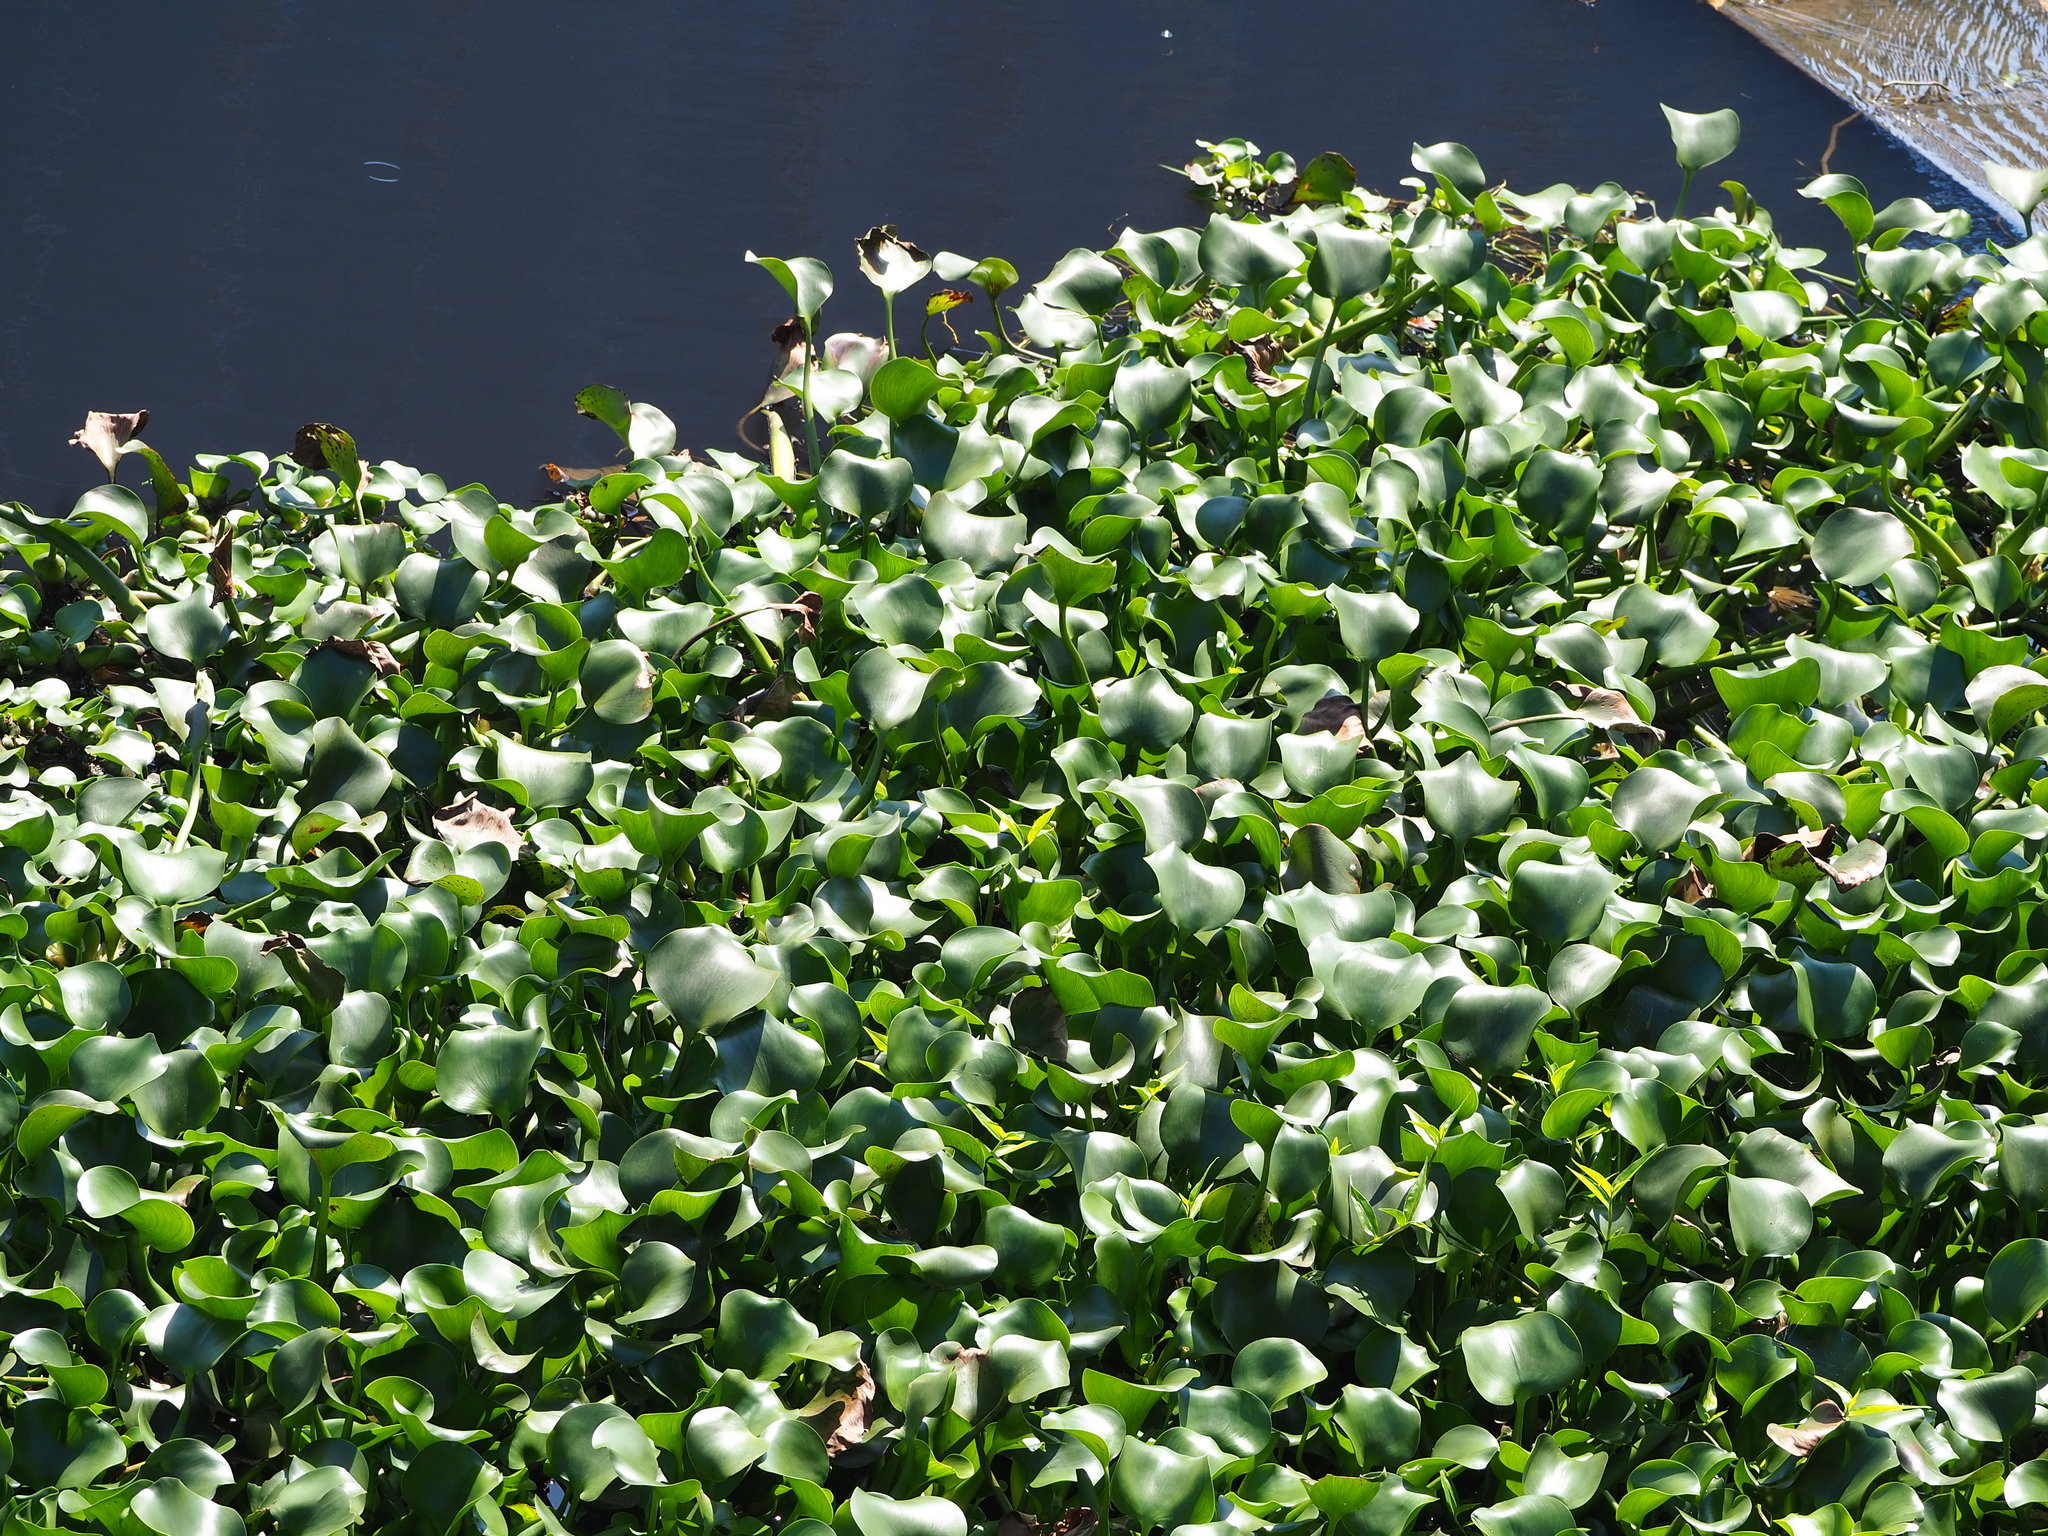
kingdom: Plantae
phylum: Tracheophyta
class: Liliopsida
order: Commelinales
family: Pontederiaceae
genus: Pontederia
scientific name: Pontederia crassipes
